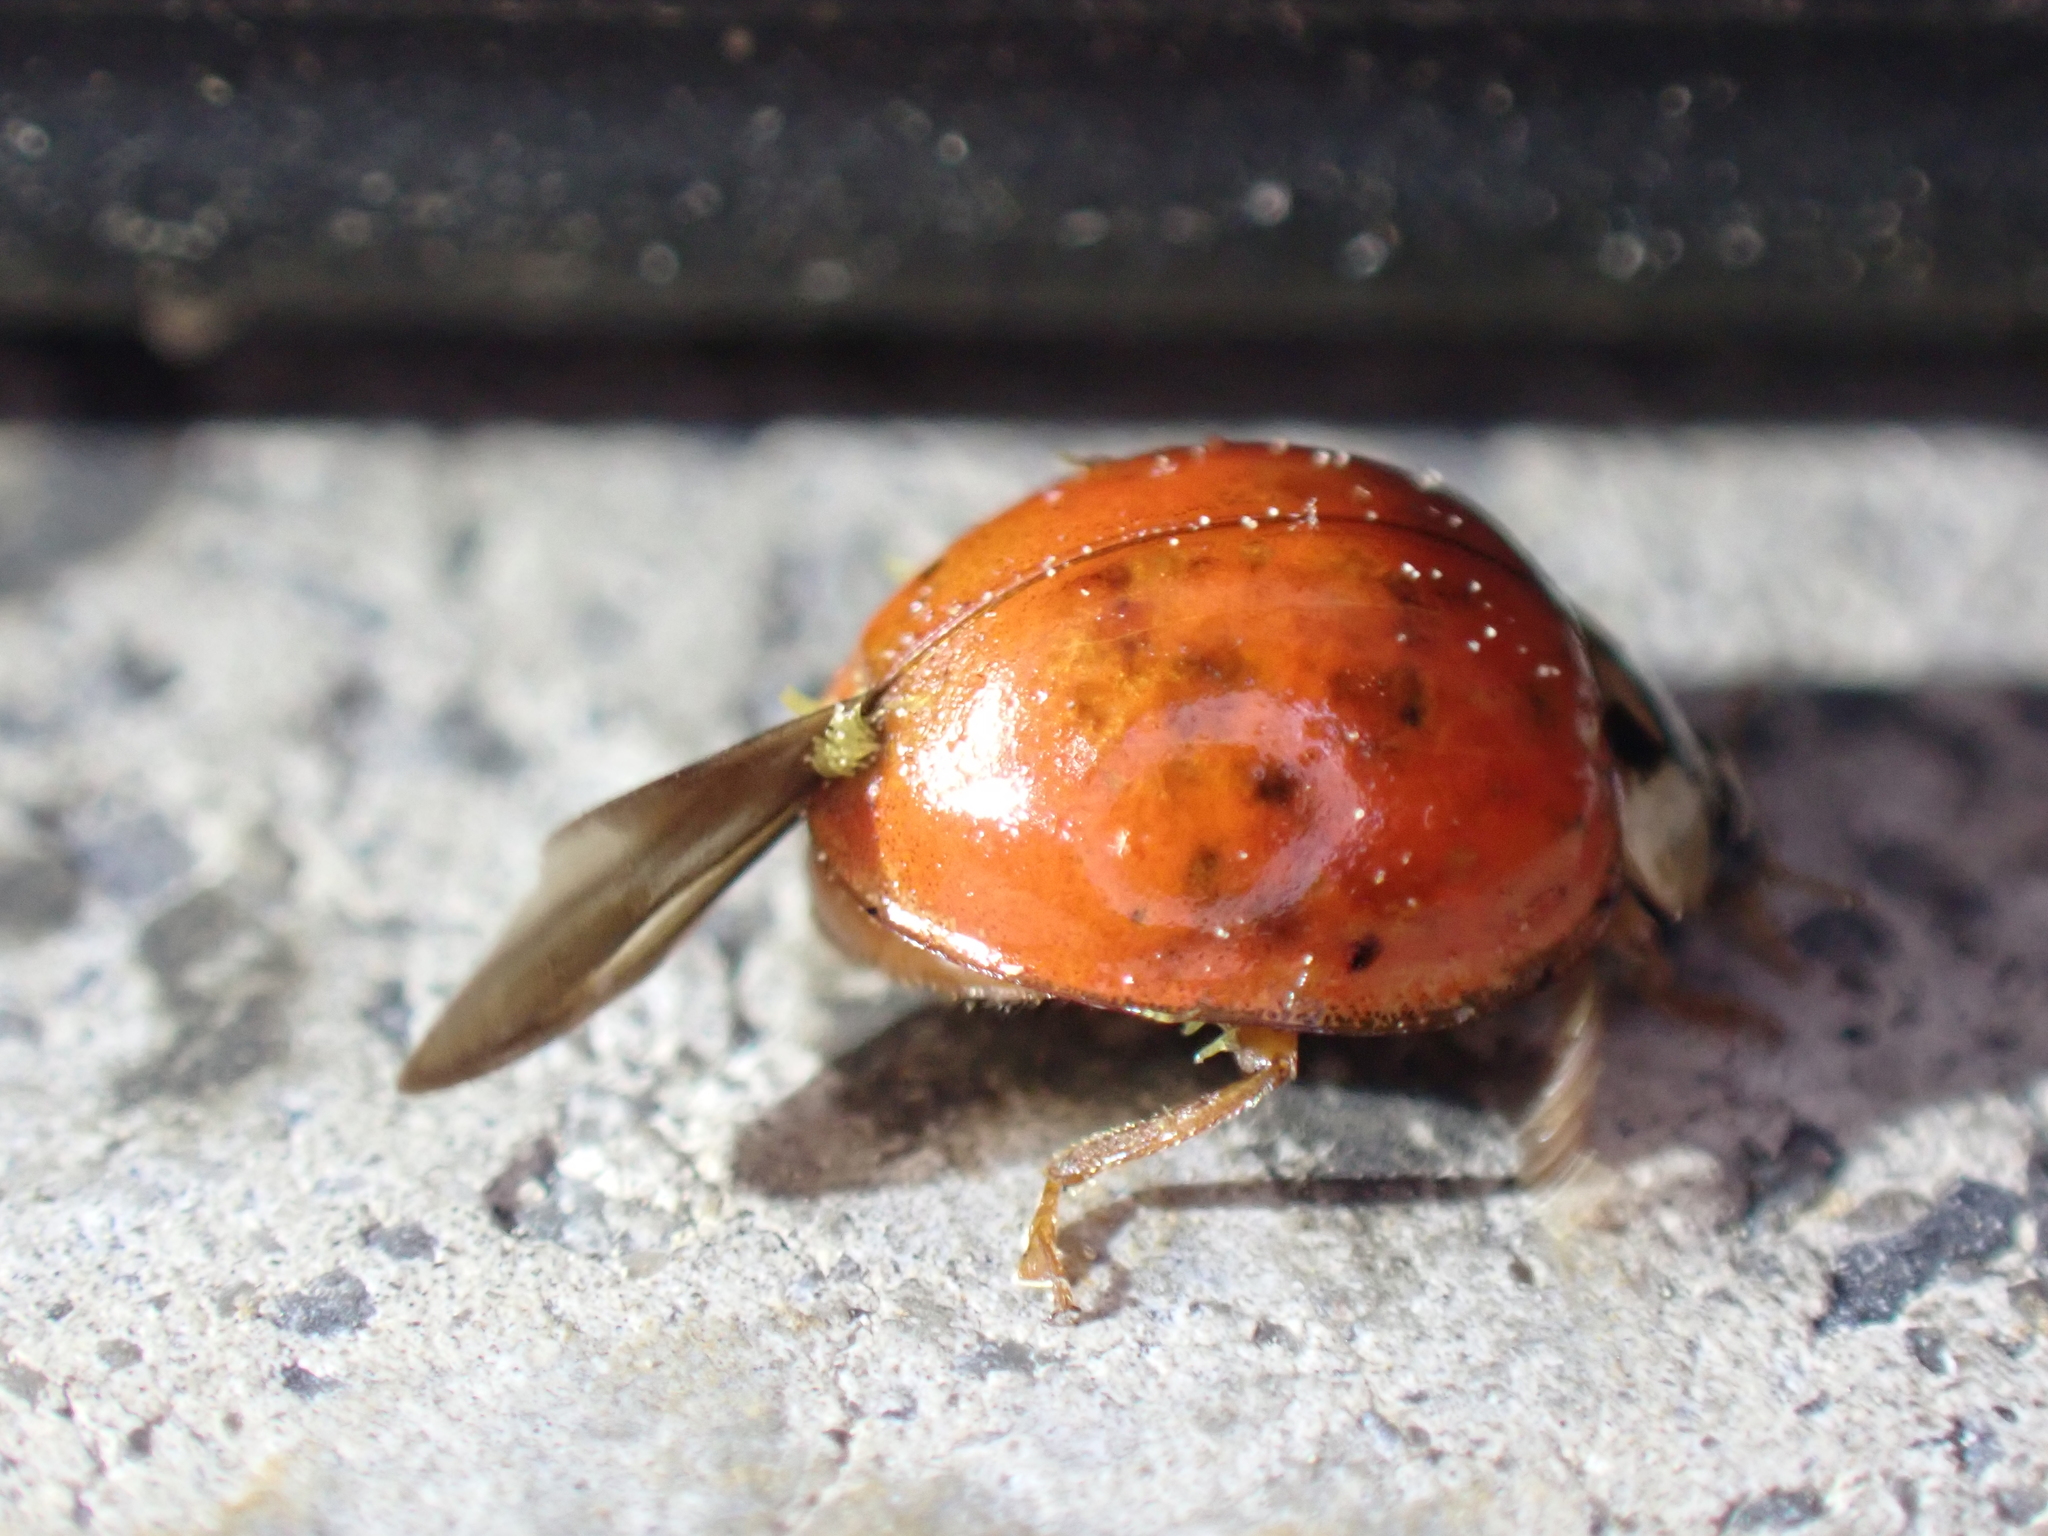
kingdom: Animalia
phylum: Arthropoda
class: Insecta
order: Coleoptera
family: Coccinellidae
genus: Harmonia
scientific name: Harmonia axyridis
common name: Harlequin ladybird
